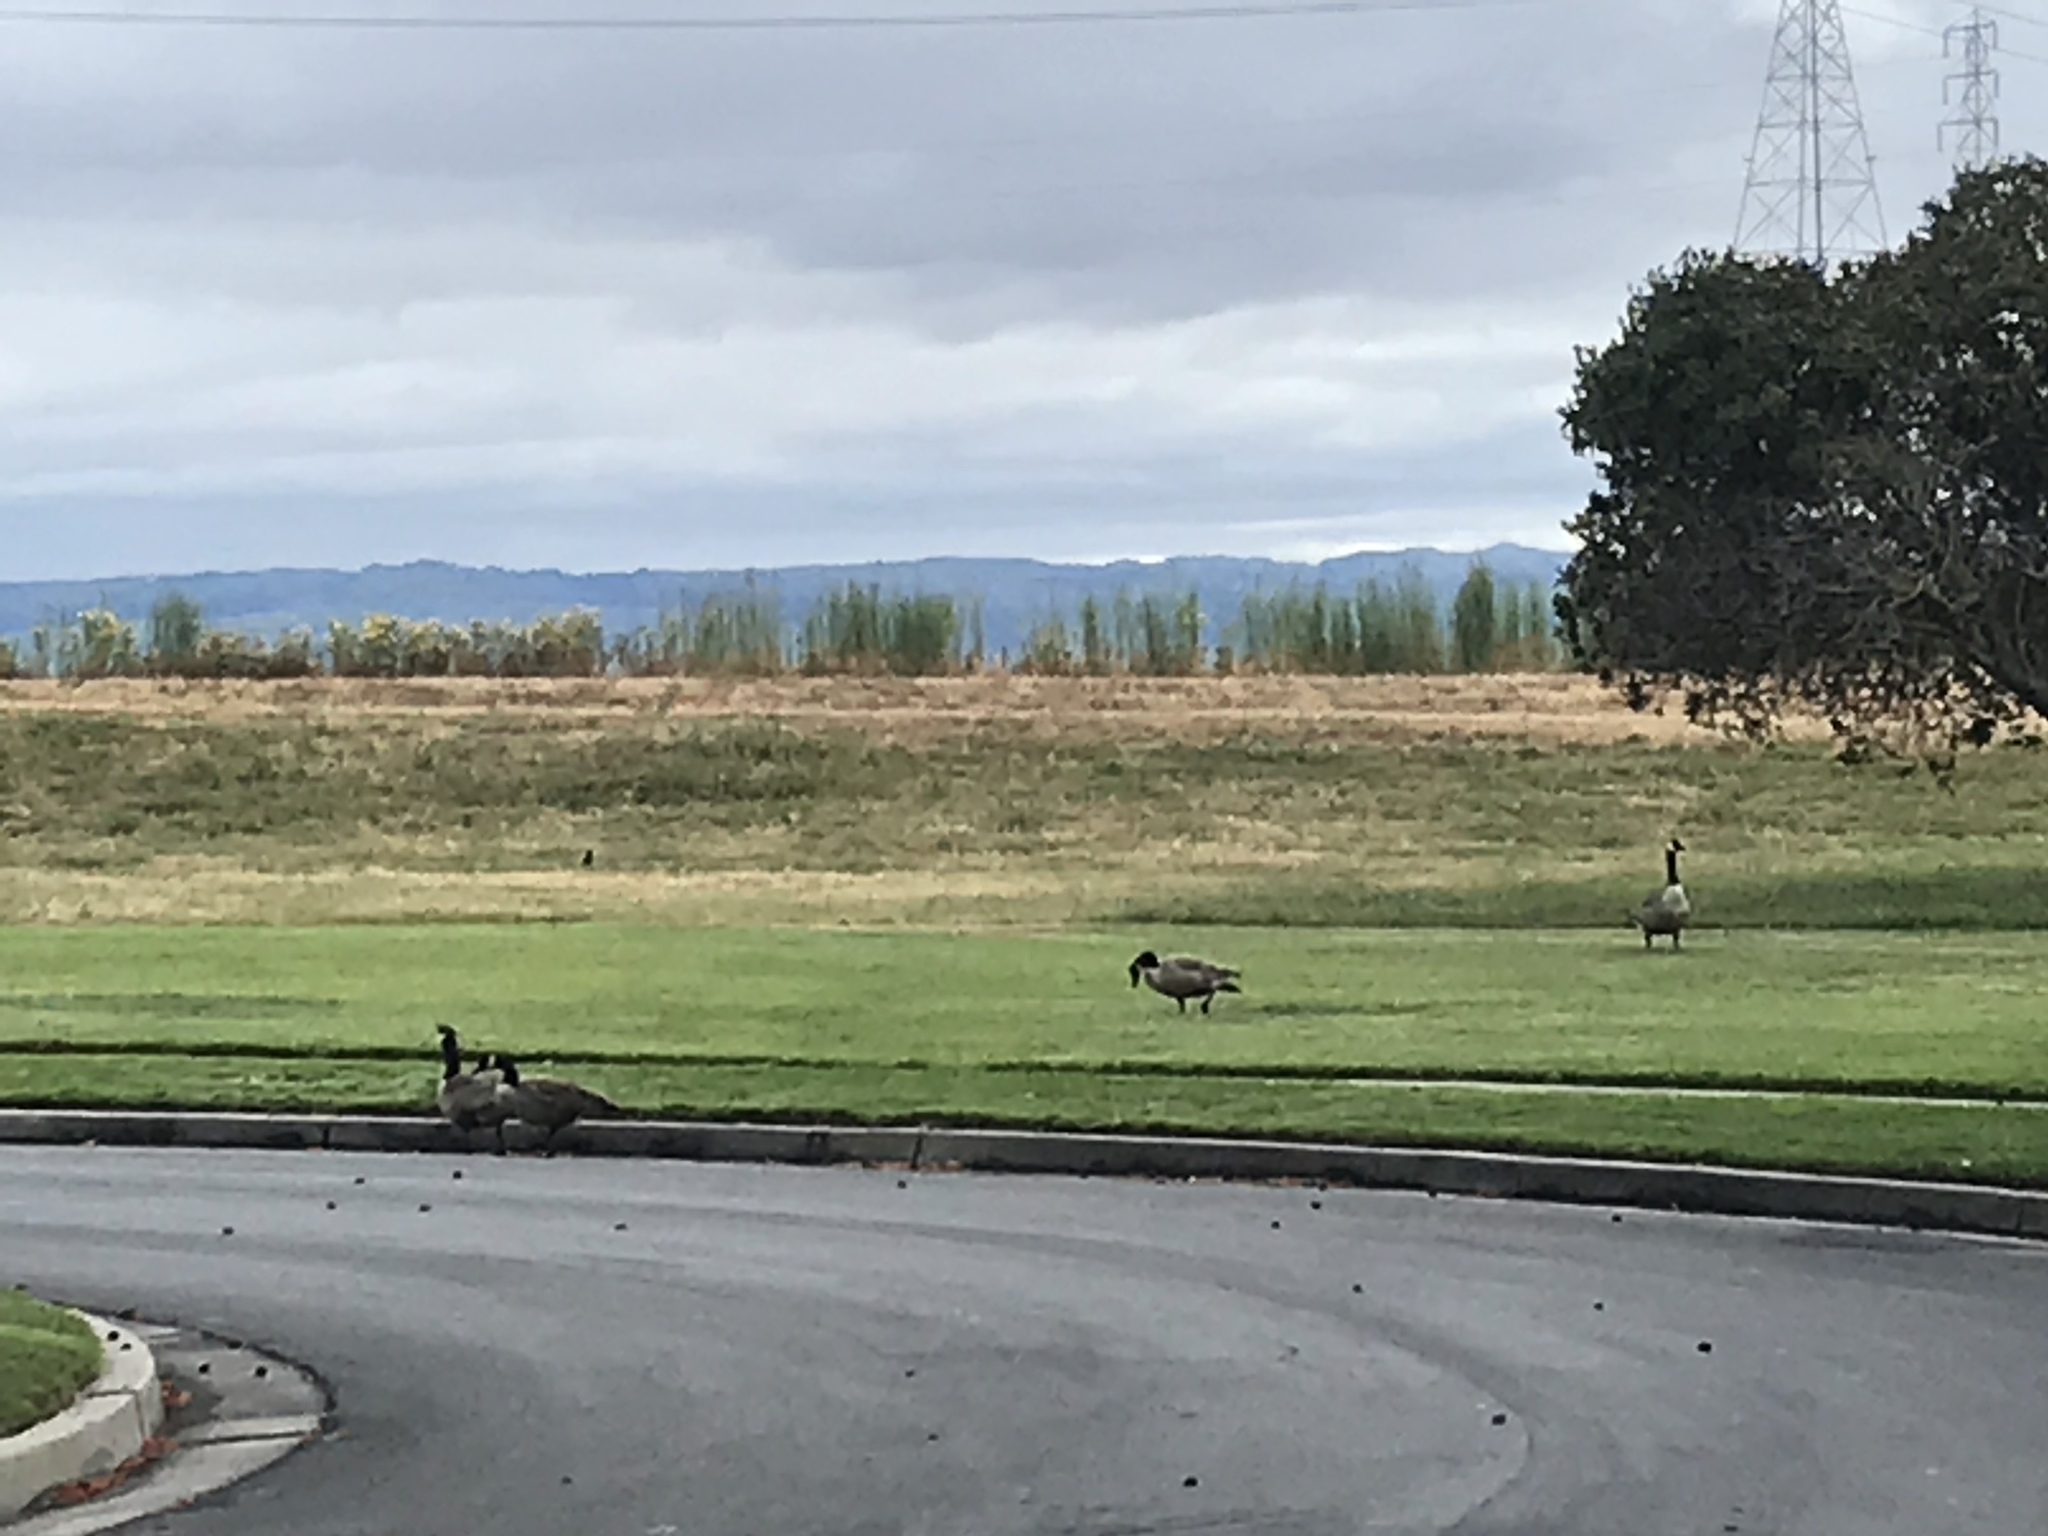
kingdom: Animalia
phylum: Chordata
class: Aves
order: Anseriformes
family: Anatidae
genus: Branta
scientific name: Branta canadensis
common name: Canada goose
